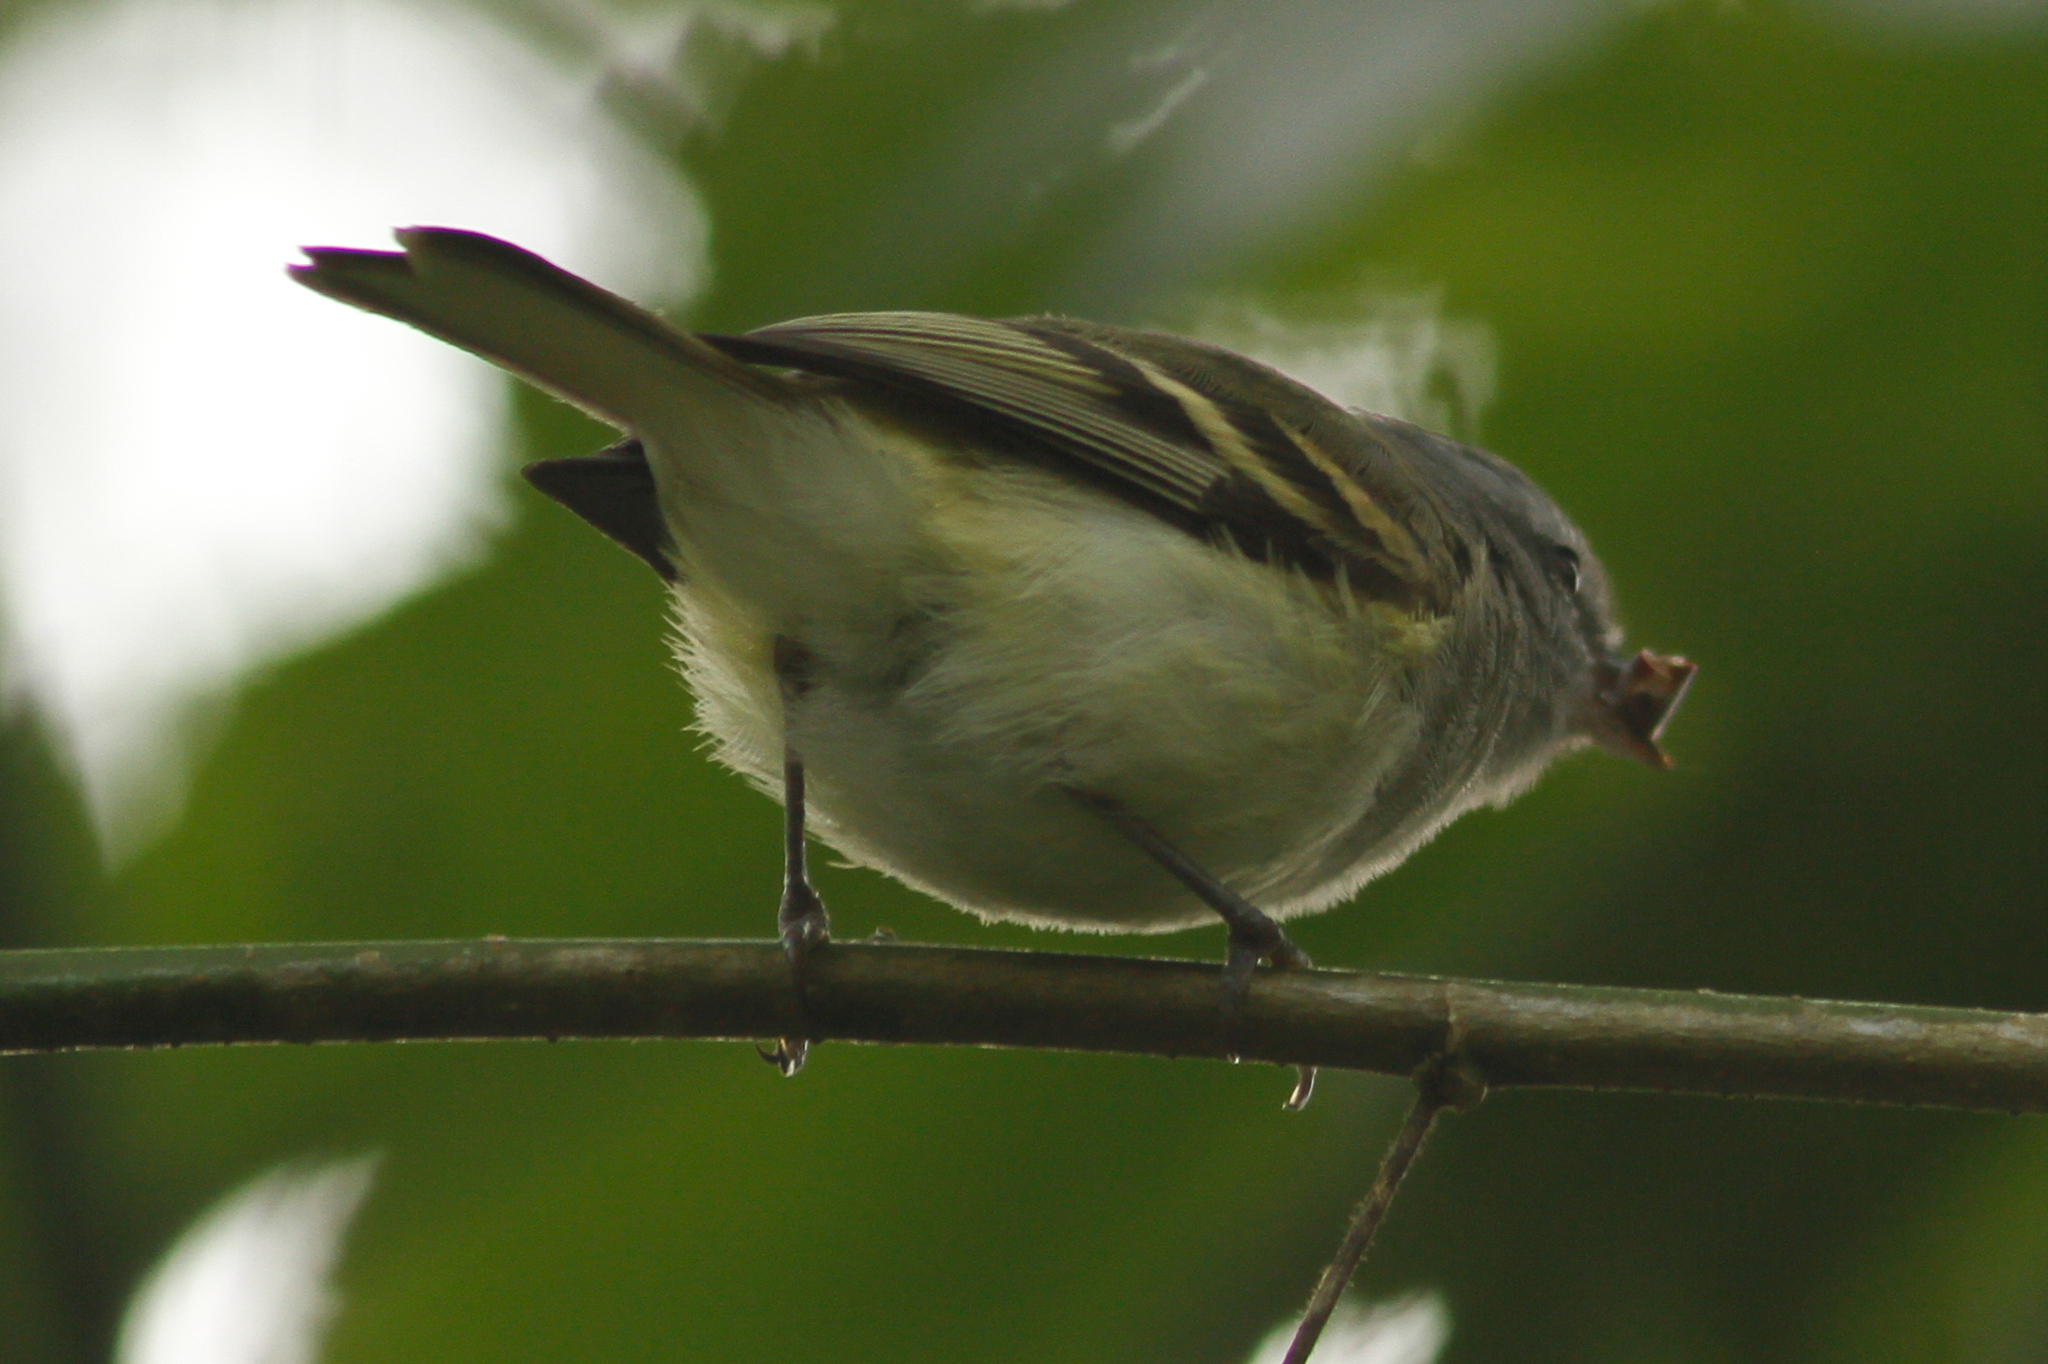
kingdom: Animalia
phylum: Chordata
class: Aves
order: Passeriformes
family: Tyrannidae
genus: Mecocerculus
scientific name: Mecocerculus poecilocercus
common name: White-tailed tyrannulet
